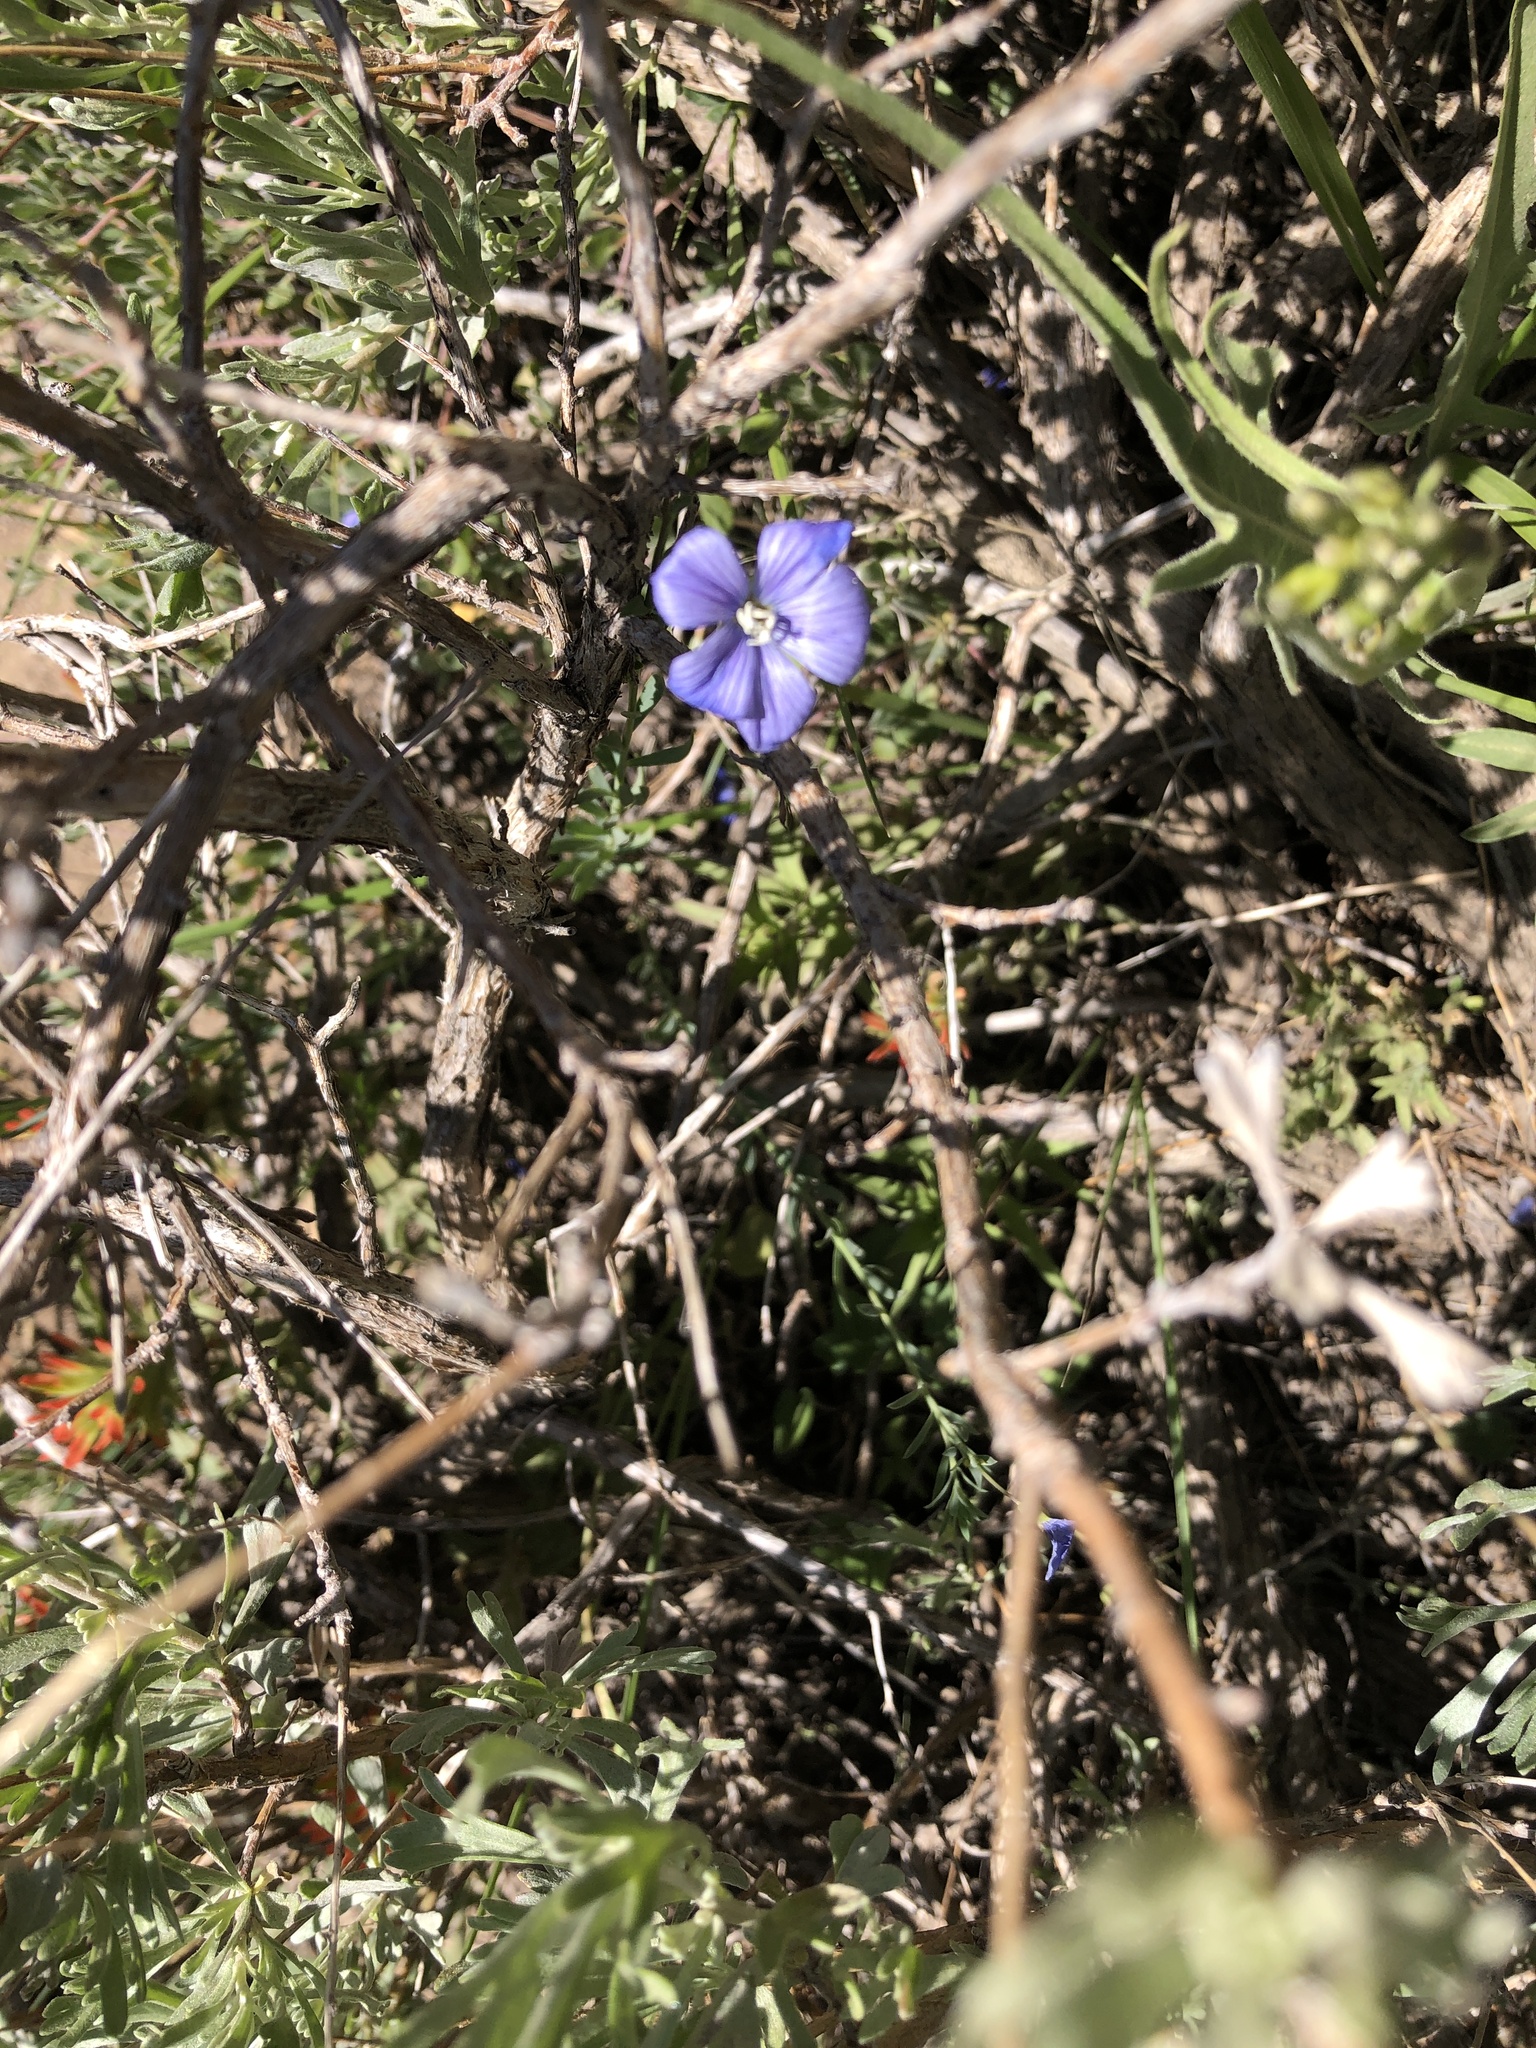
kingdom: Plantae
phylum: Tracheophyta
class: Magnoliopsida
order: Malpighiales
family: Linaceae
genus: Linum
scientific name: Linum lewisii
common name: Prairie flax
